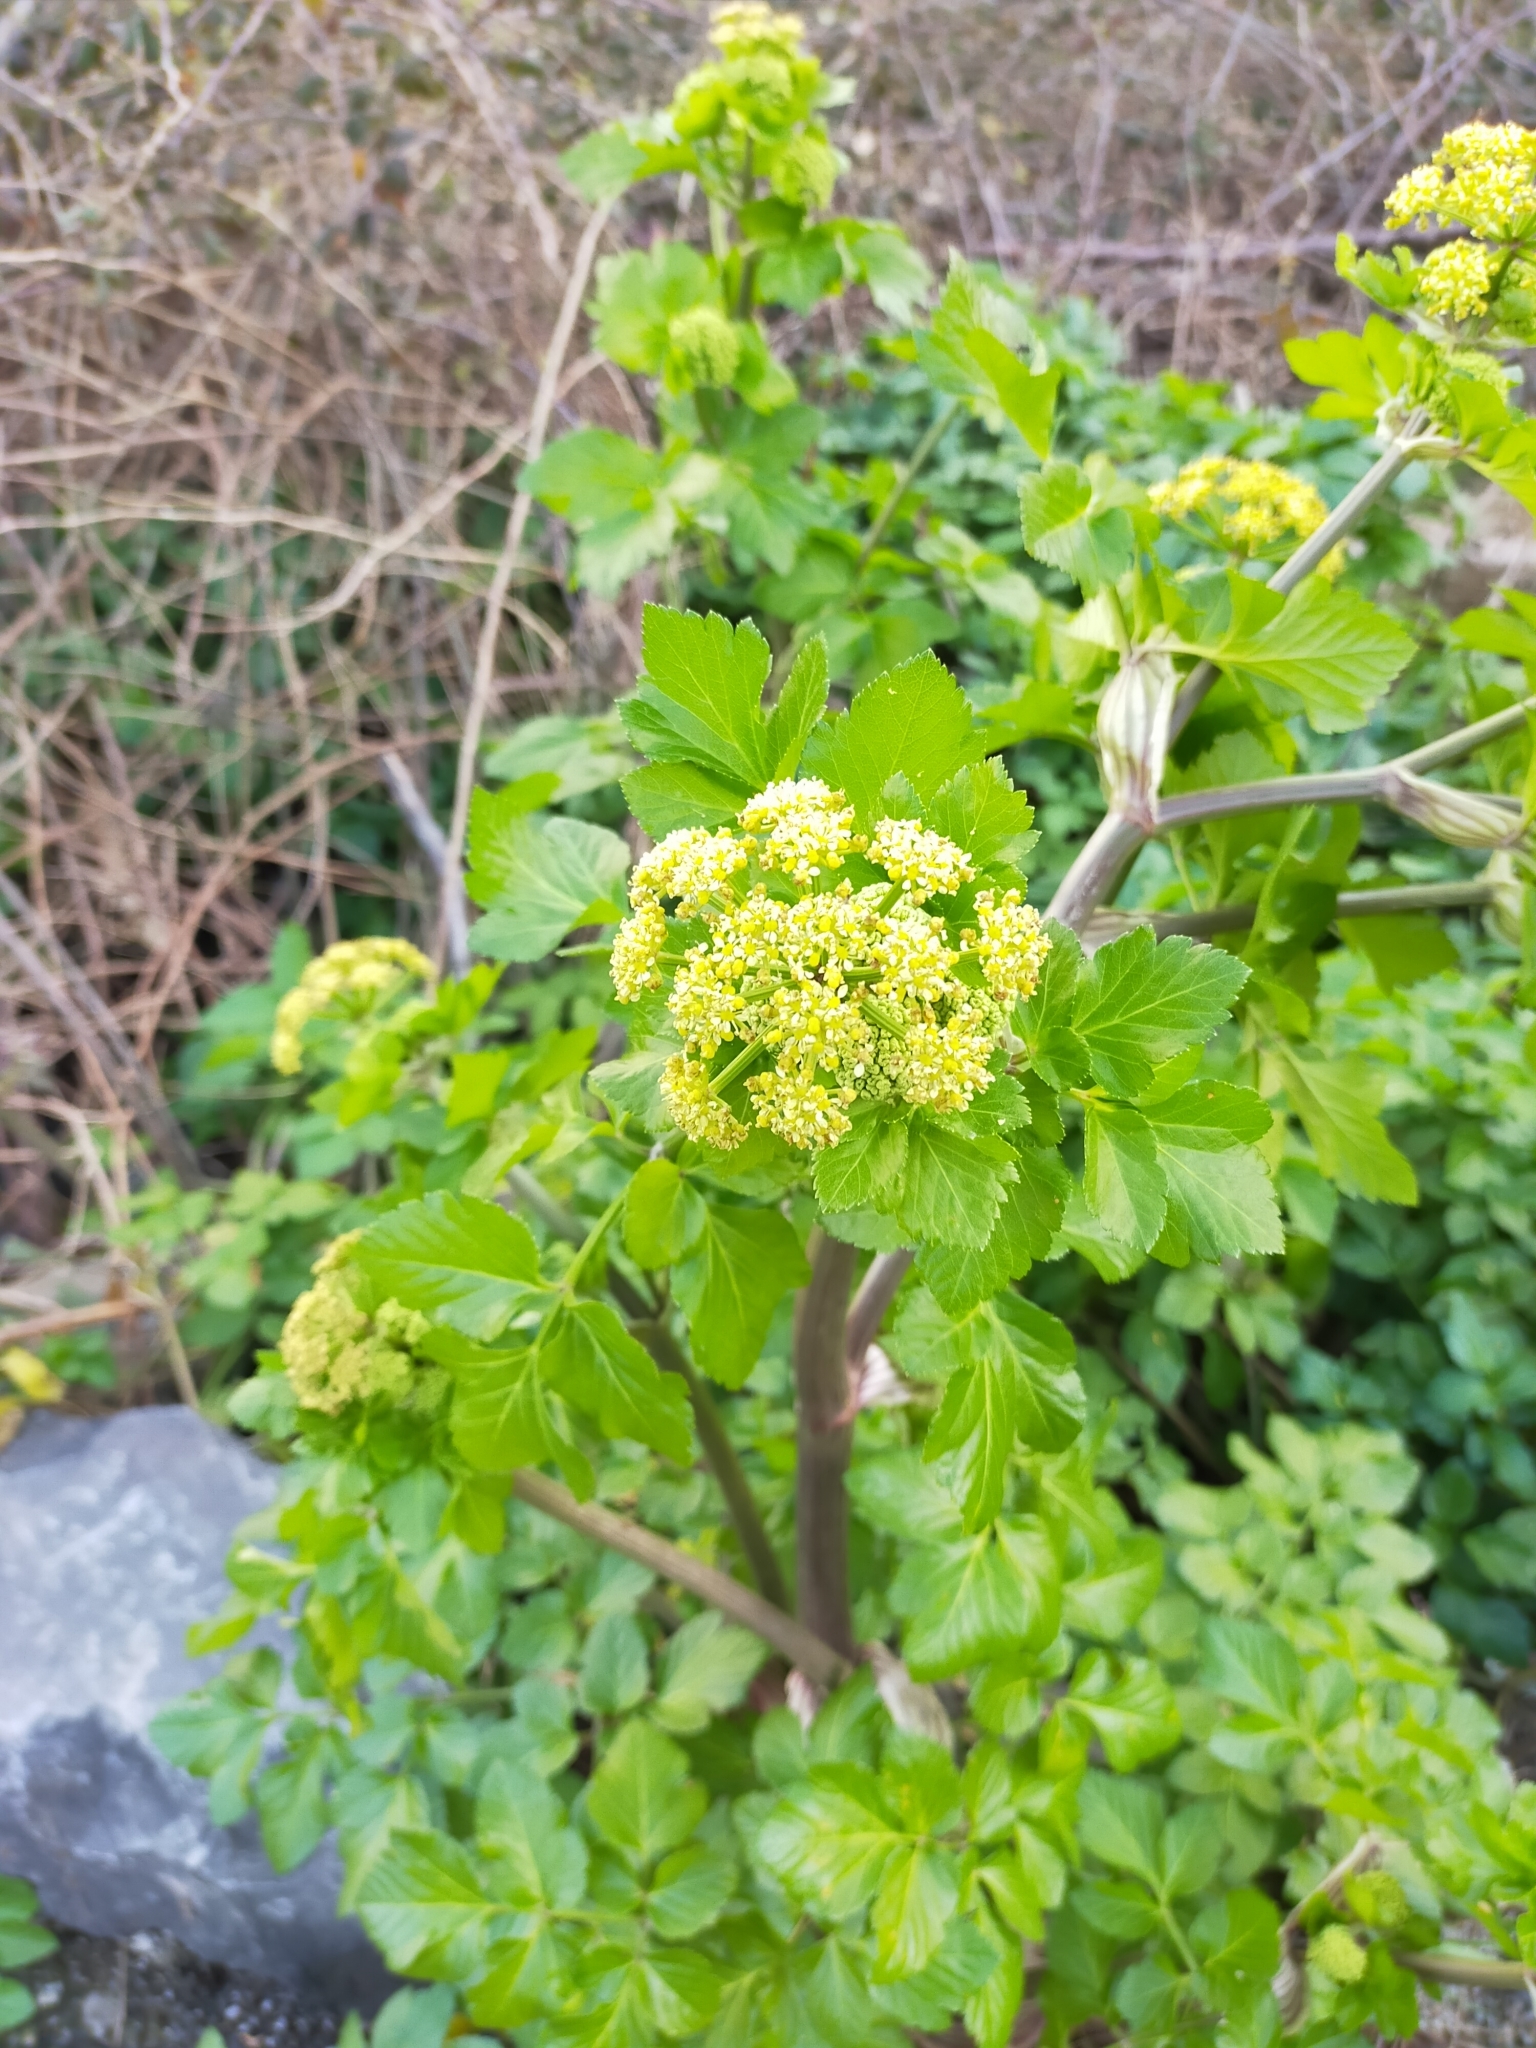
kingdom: Plantae
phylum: Tracheophyta
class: Magnoliopsida
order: Apiales
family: Apiaceae
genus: Smyrnium
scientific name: Smyrnium olusatrum
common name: Alexanders
